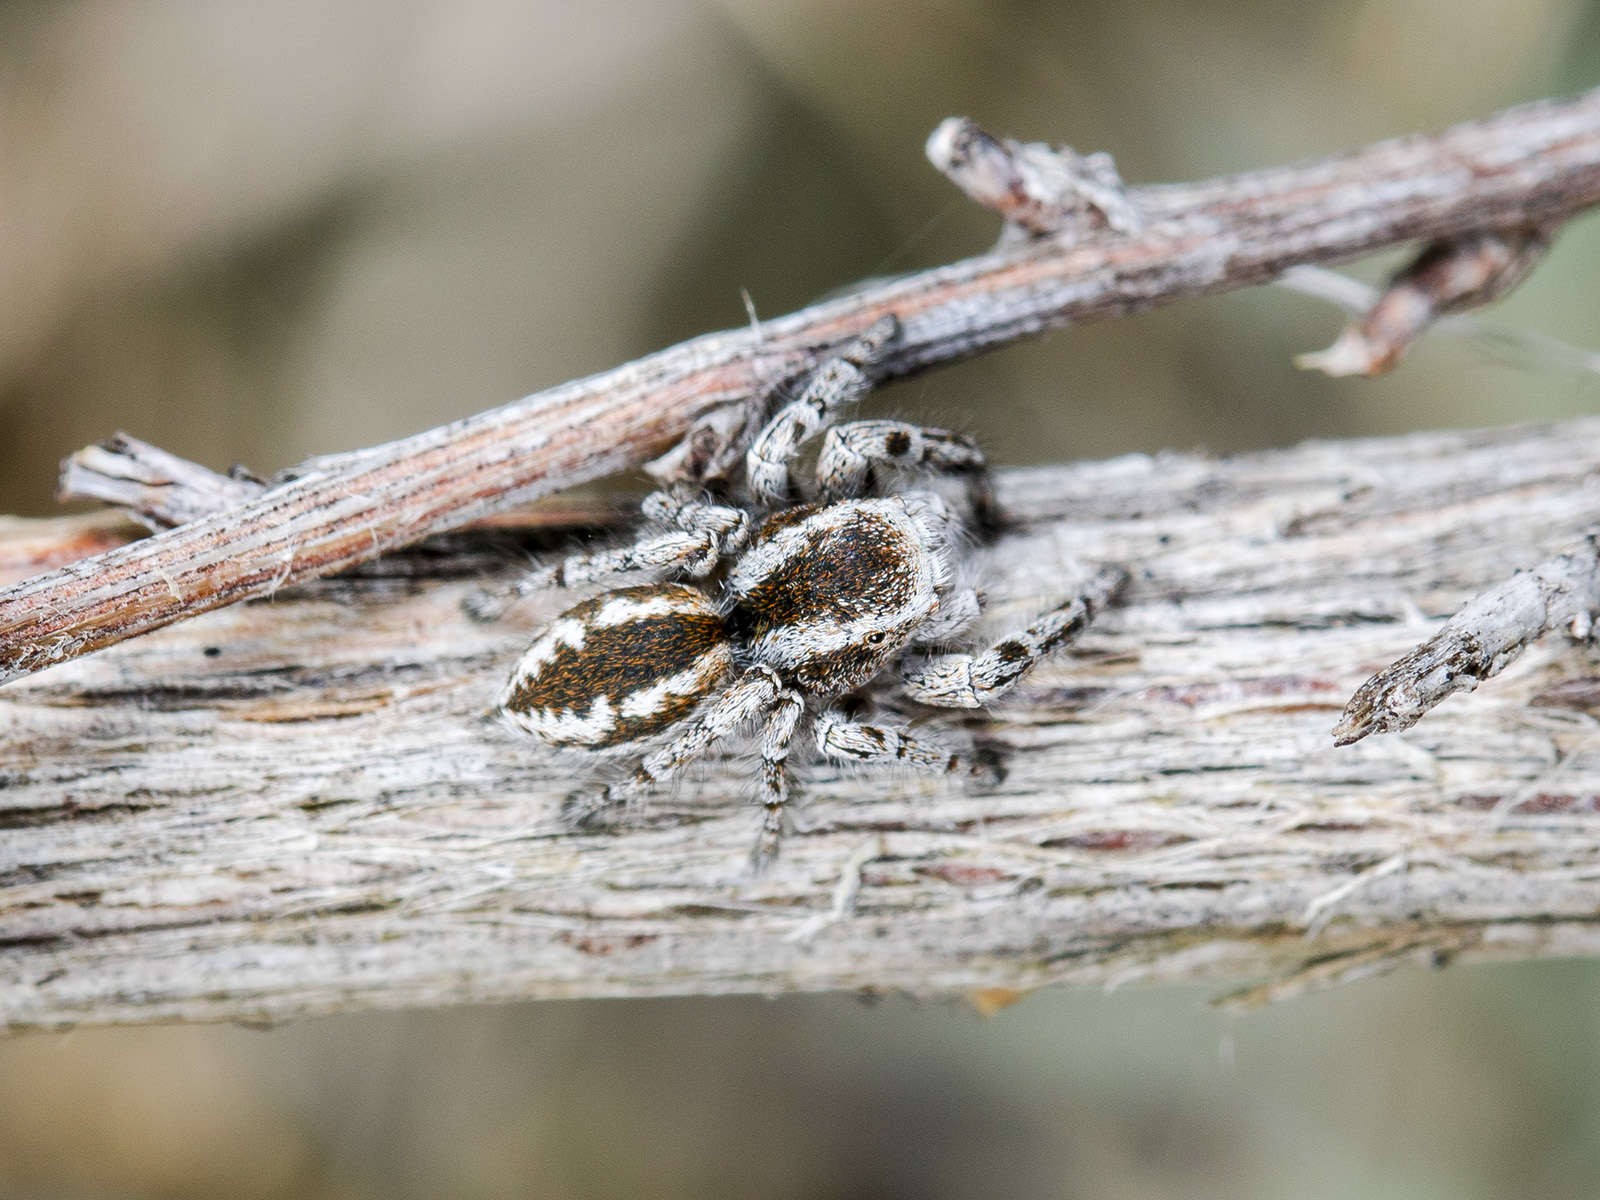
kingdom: Animalia
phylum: Arthropoda
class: Arachnida
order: Araneae
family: Salticidae
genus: Pseudomogrus
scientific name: Pseudomogrus vittatus
